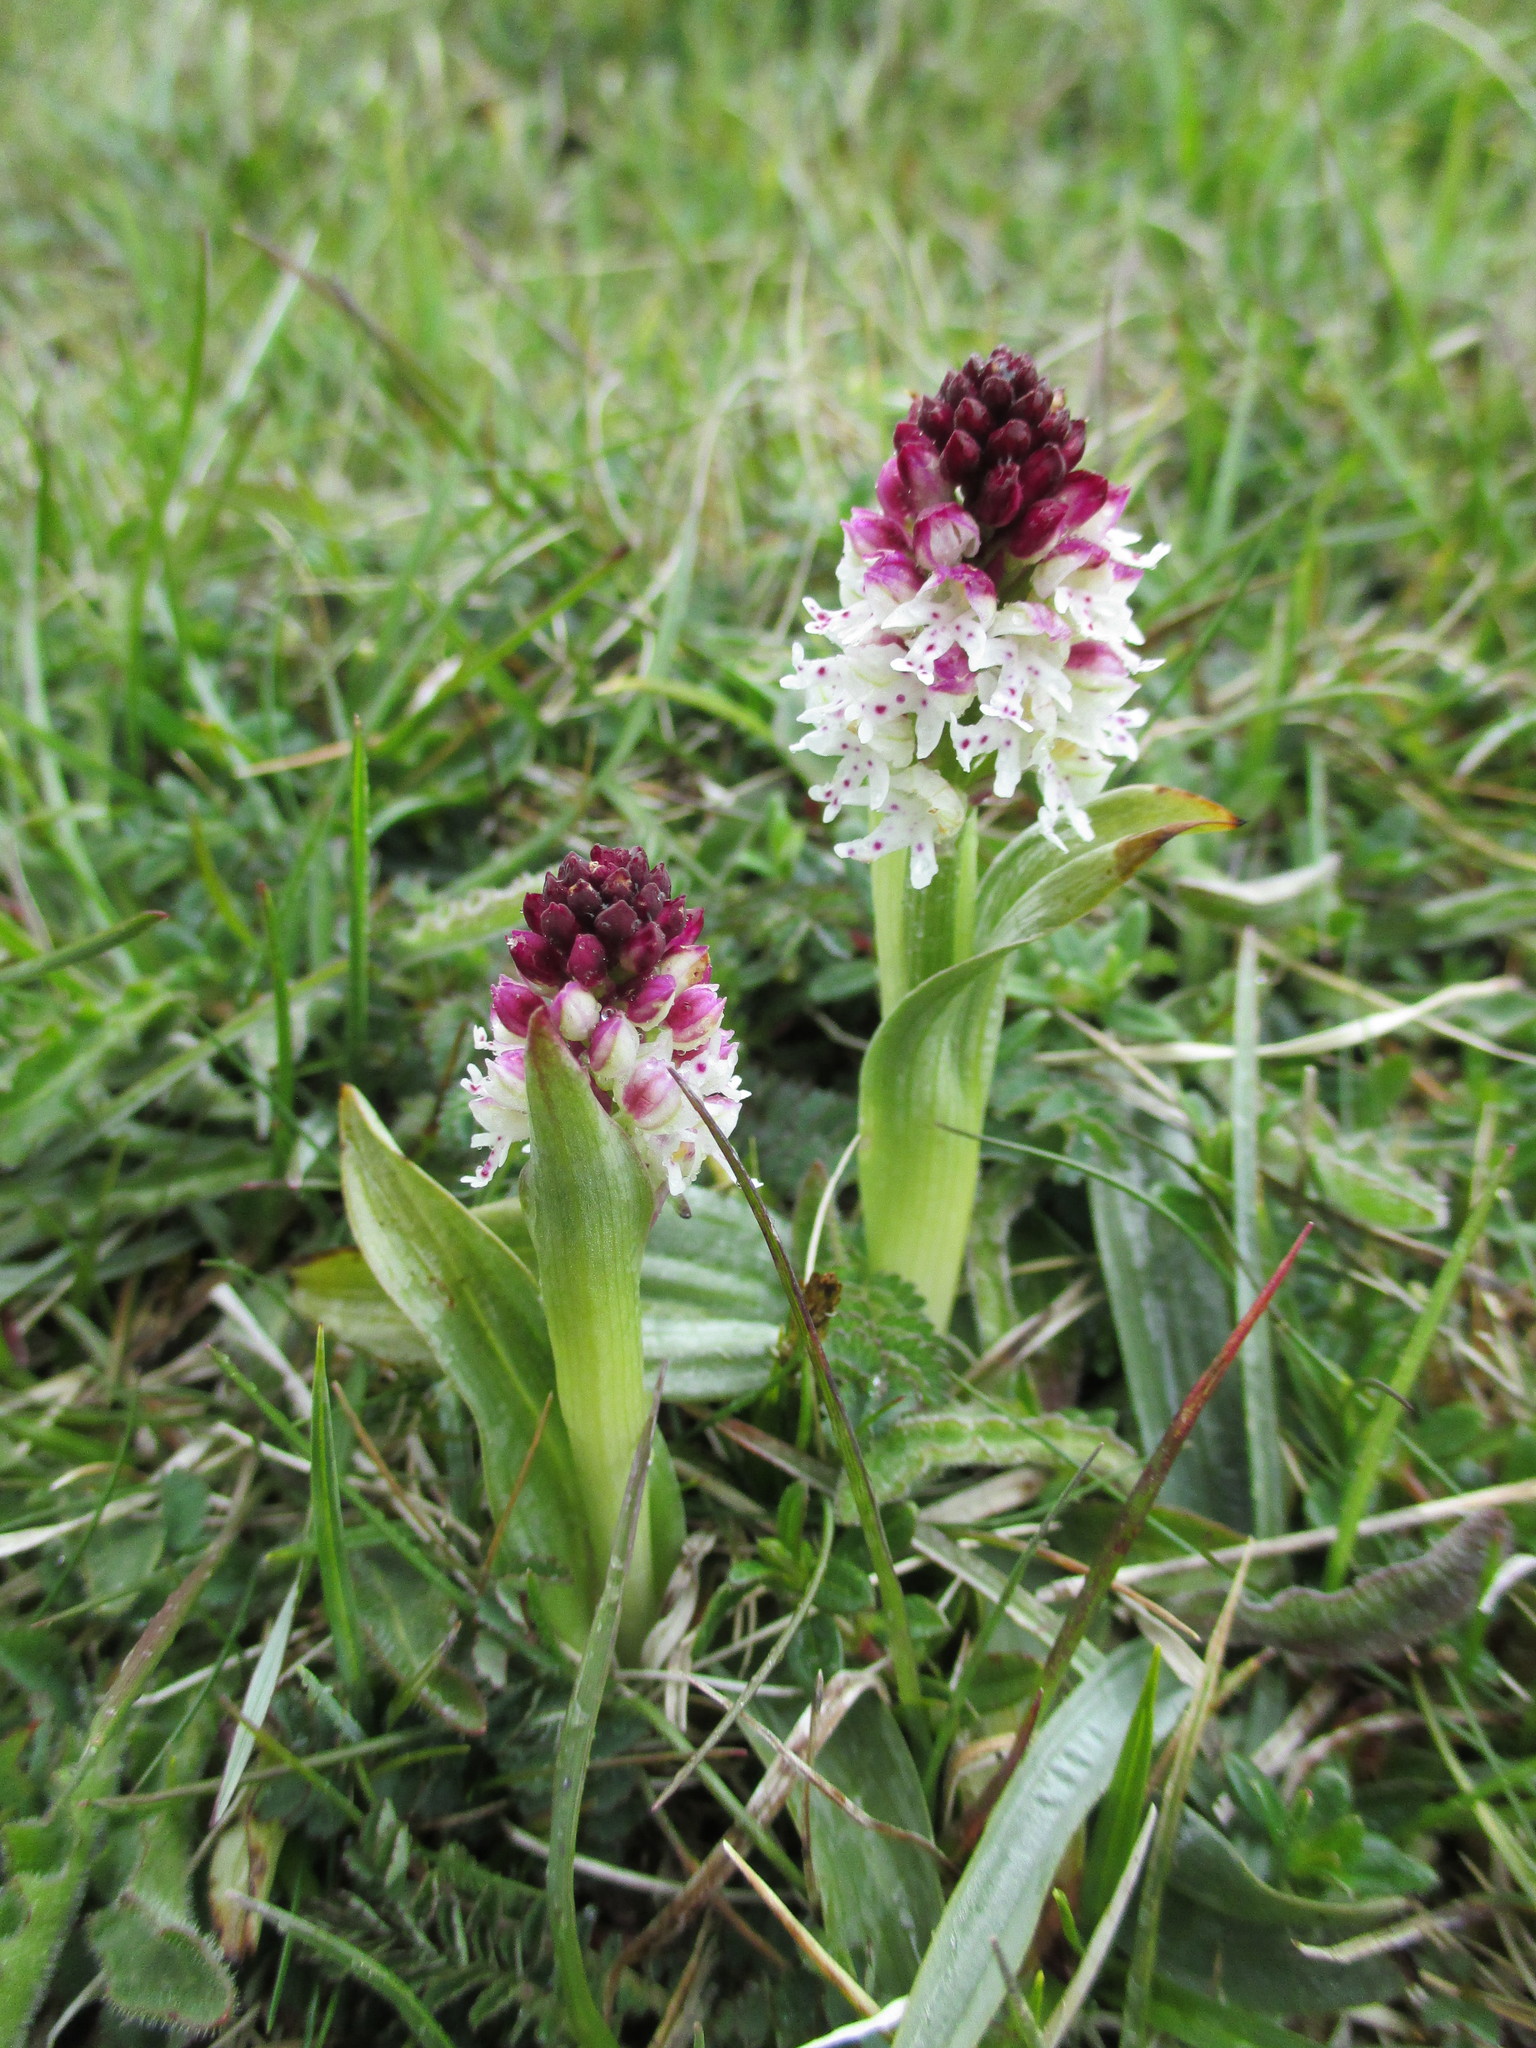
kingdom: Plantae
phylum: Tracheophyta
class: Liliopsida
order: Asparagales
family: Orchidaceae
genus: Neotinea
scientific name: Neotinea ustulata
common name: Burnt orchid
